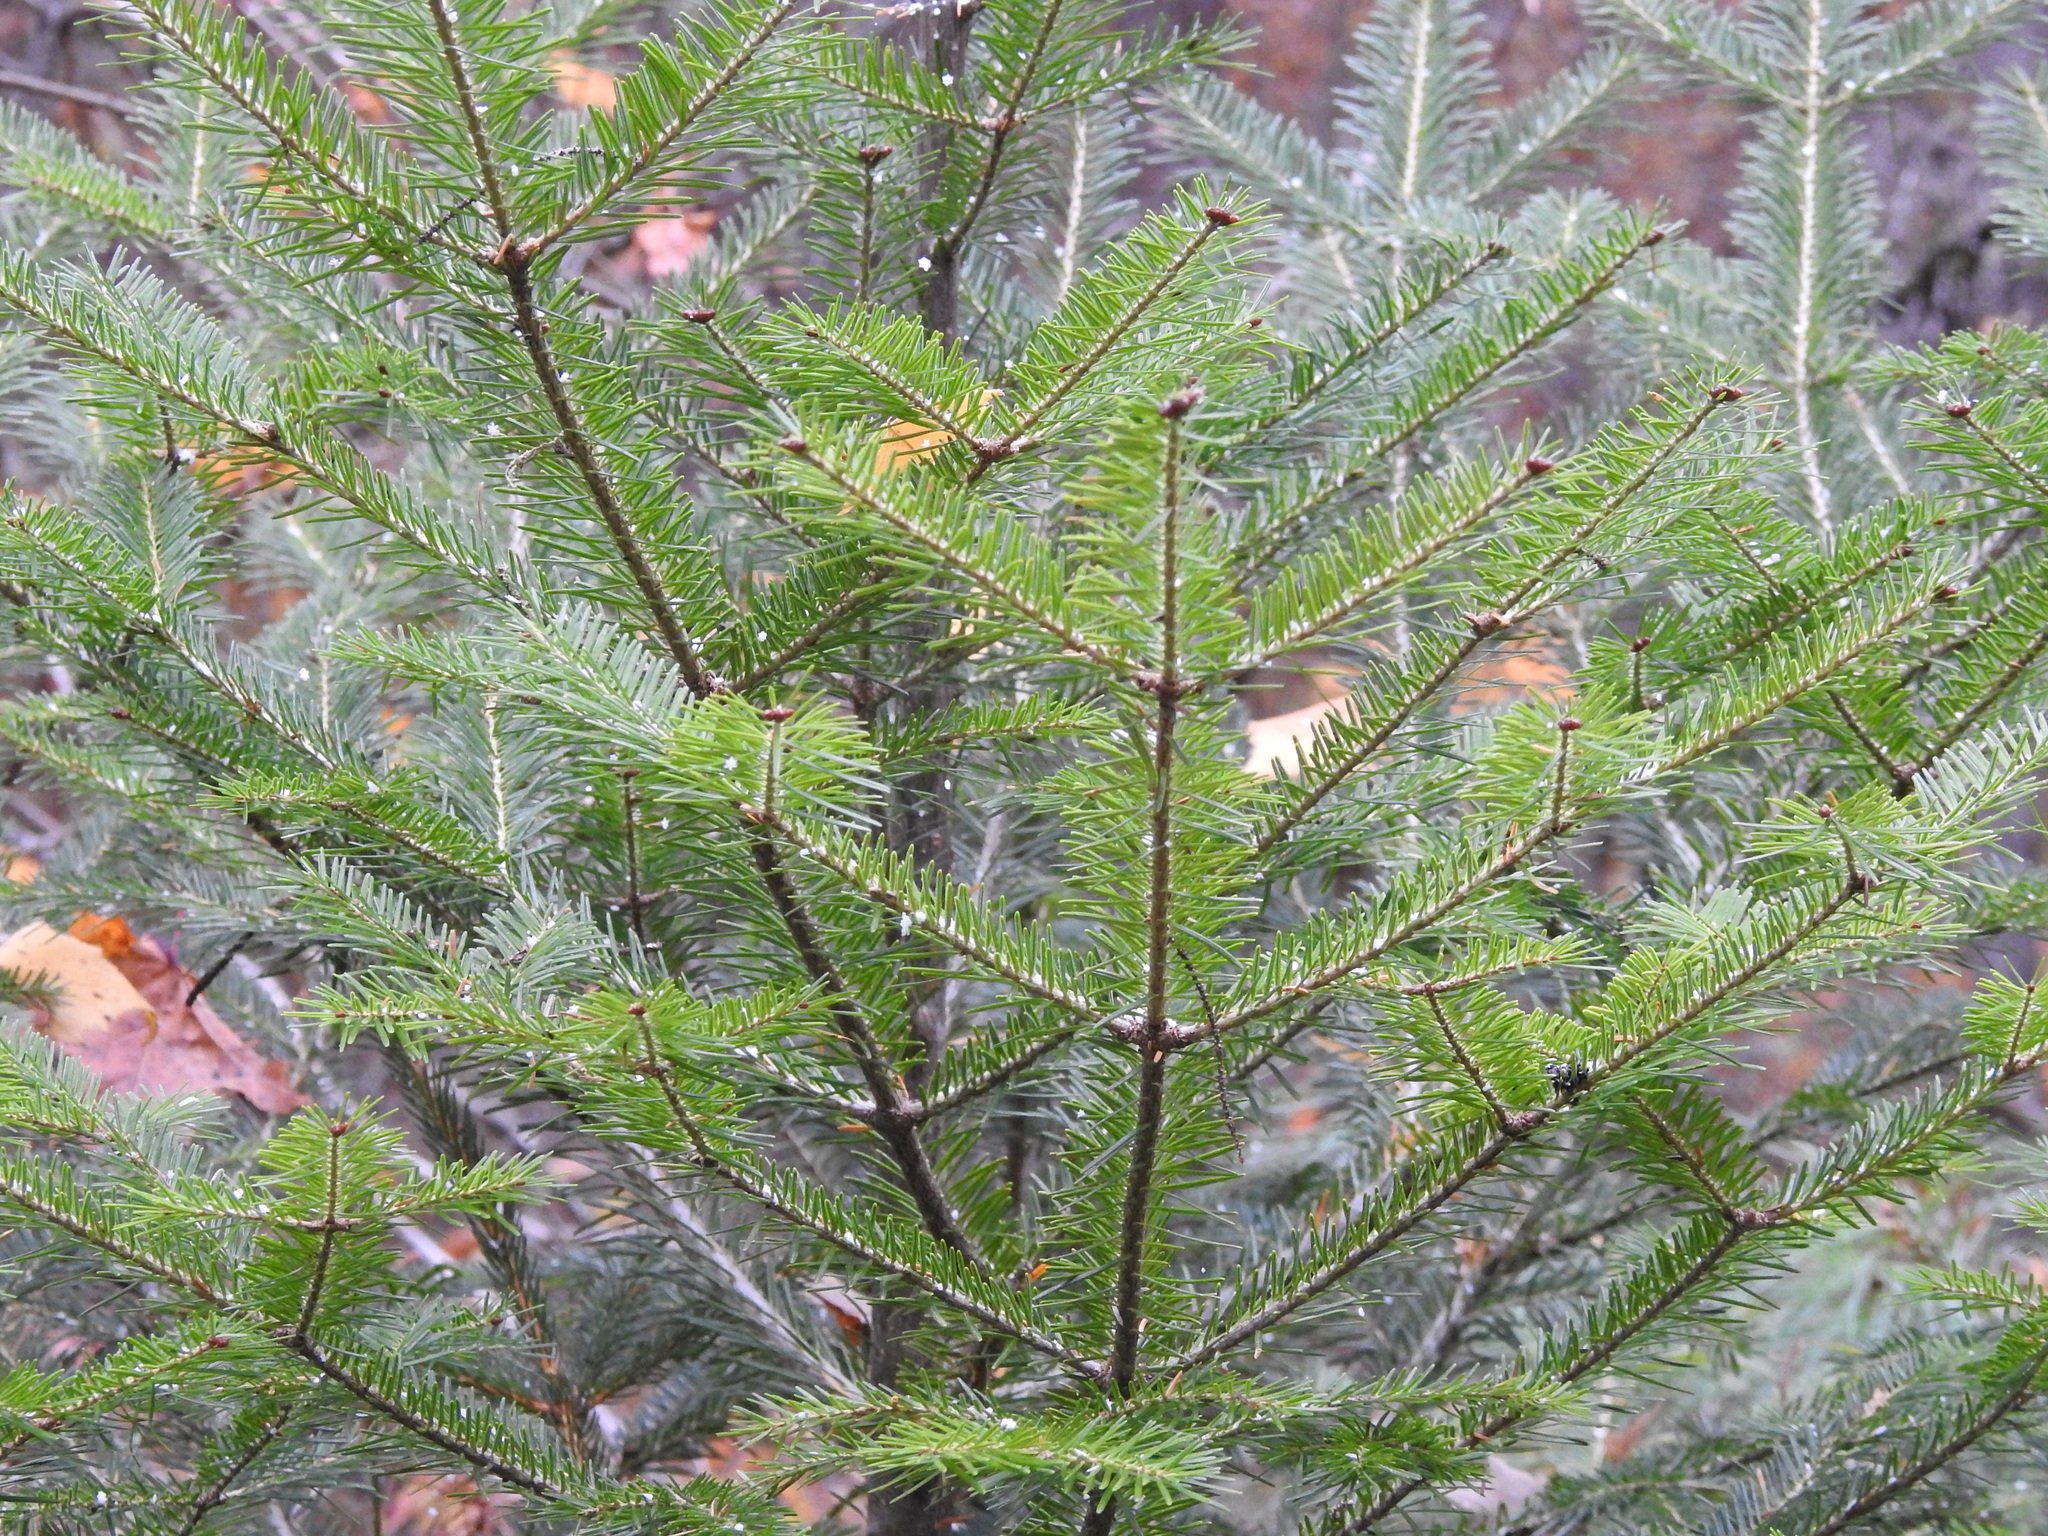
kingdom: Plantae
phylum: Tracheophyta
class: Pinopsida
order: Pinales
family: Pinaceae
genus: Abies
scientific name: Abies balsamea
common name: Balsam fir
